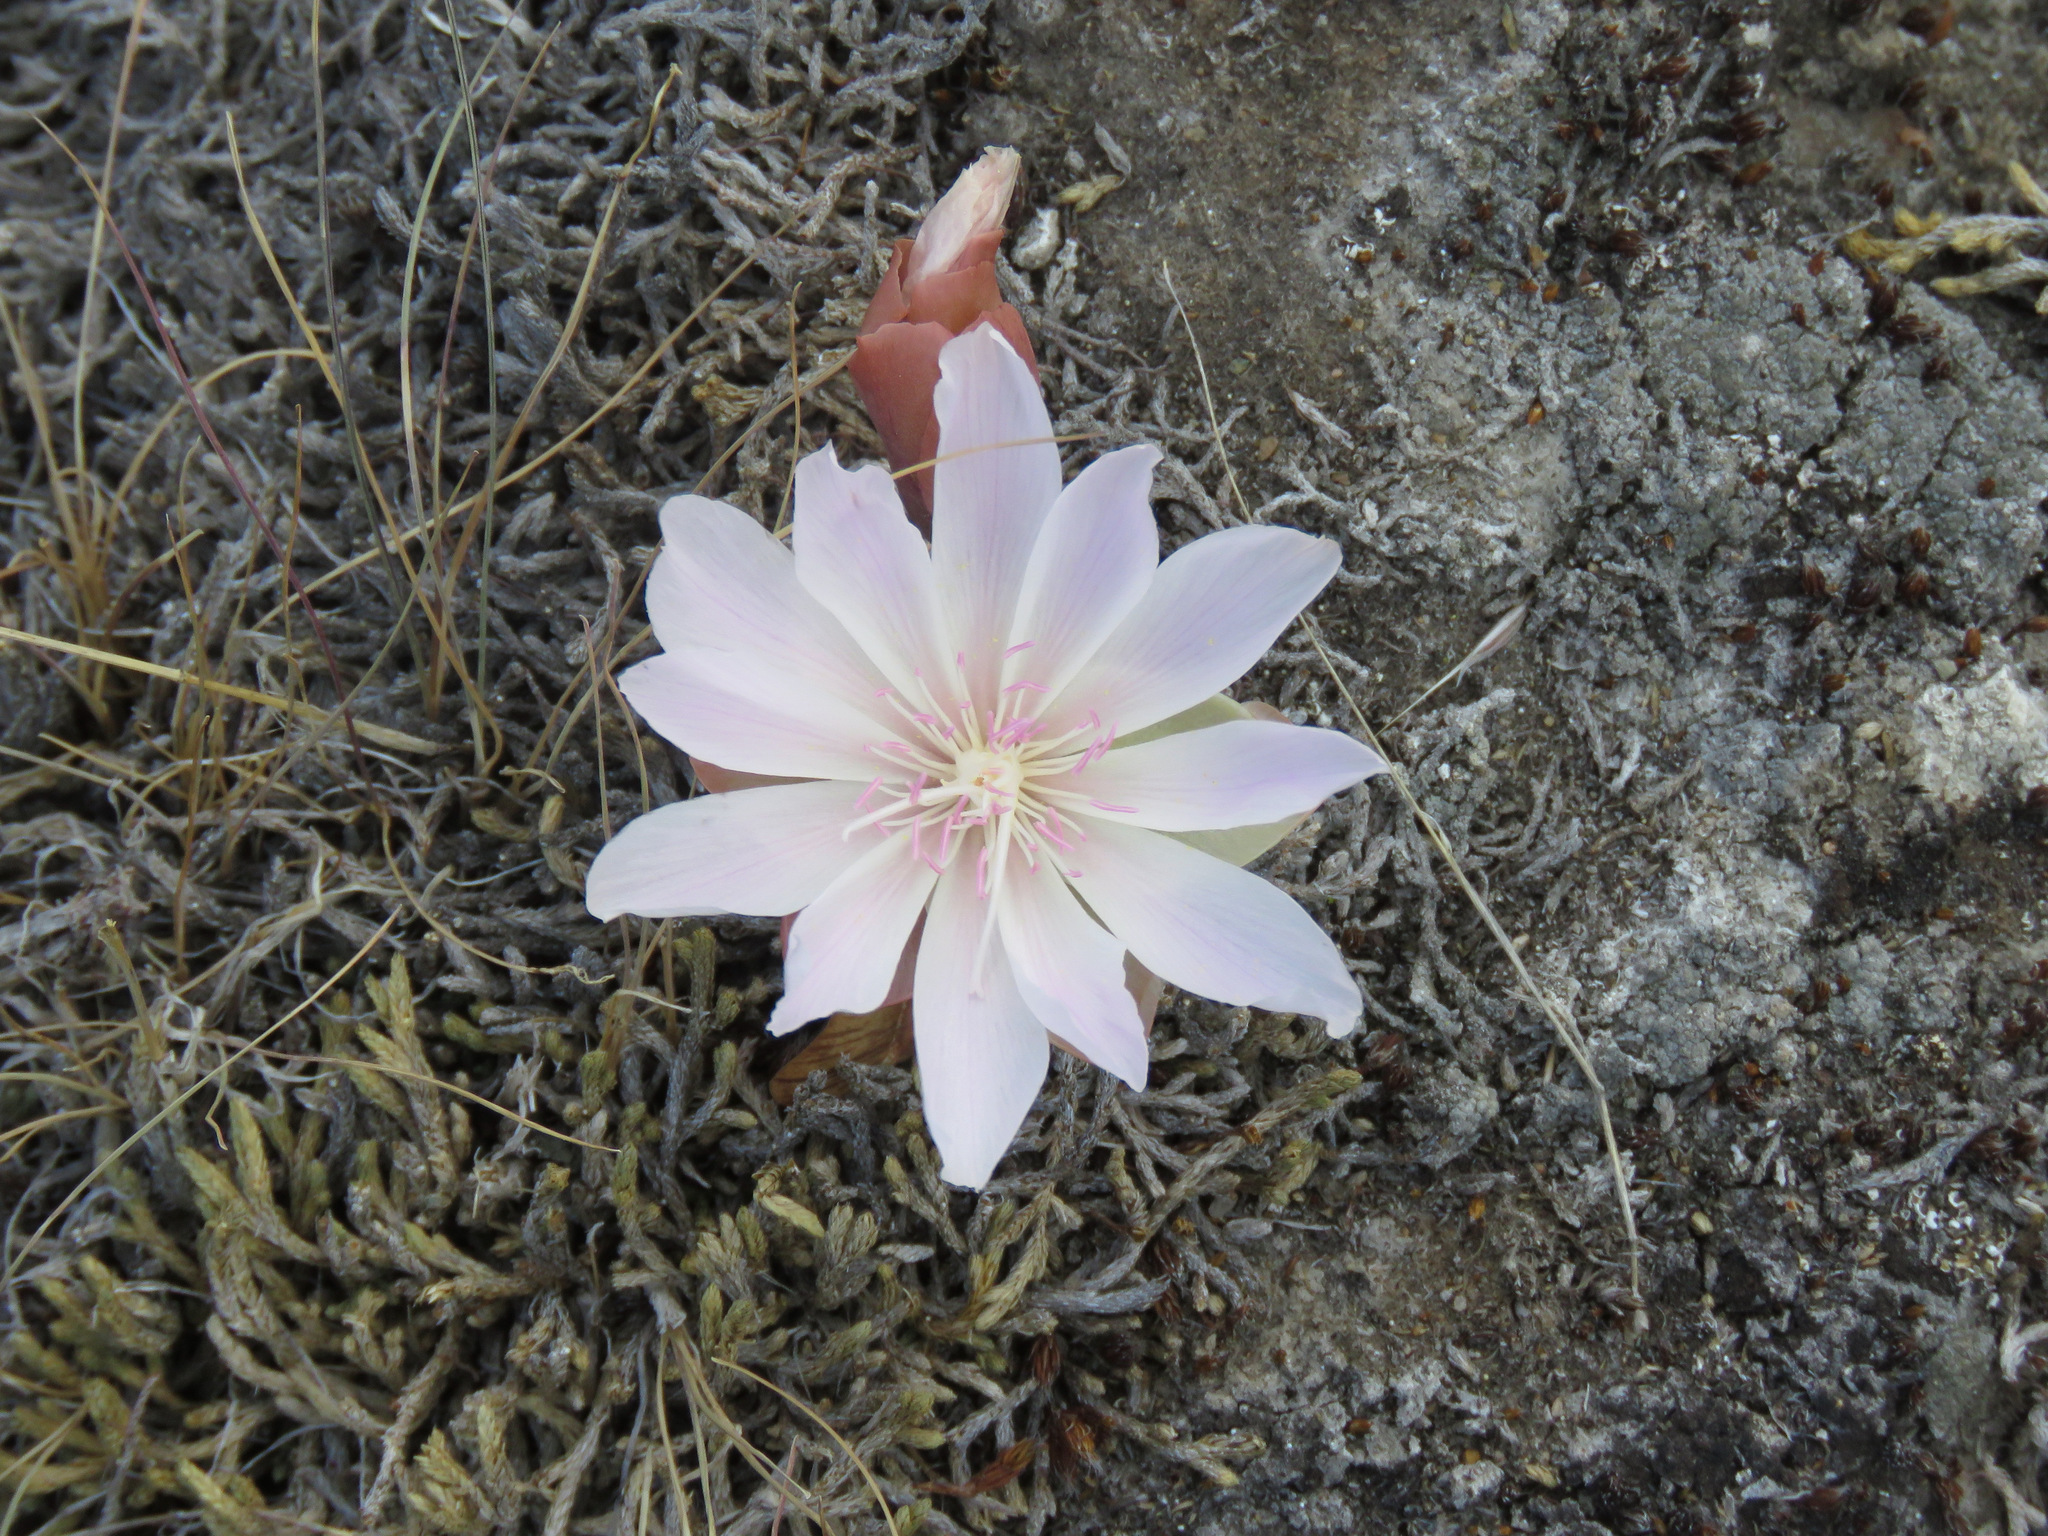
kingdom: Plantae
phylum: Tracheophyta
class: Magnoliopsida
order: Caryophyllales
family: Montiaceae
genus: Lewisia
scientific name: Lewisia rediviva
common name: Bitter-root
